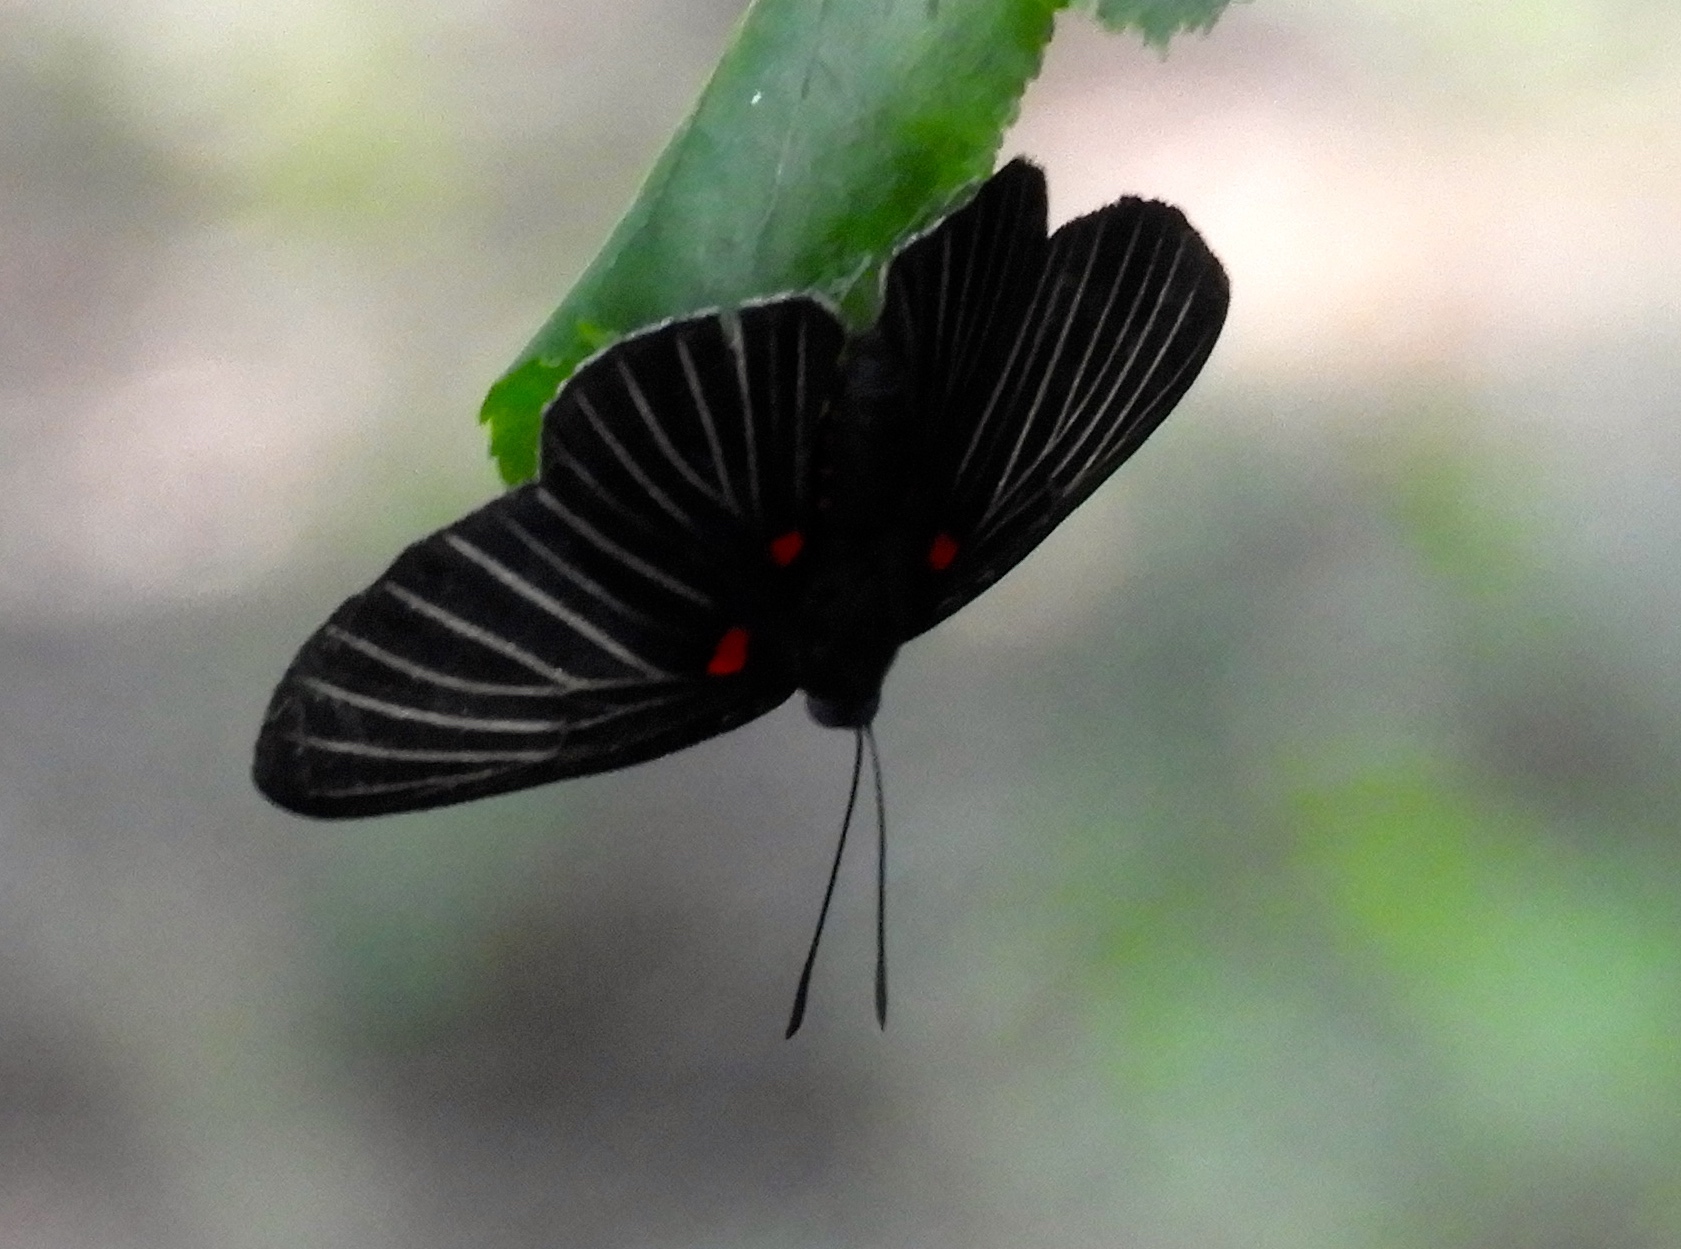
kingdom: Animalia
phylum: Arthropoda
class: Insecta
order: Lepidoptera
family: Lycaenidae
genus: Melanis
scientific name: Melanis
